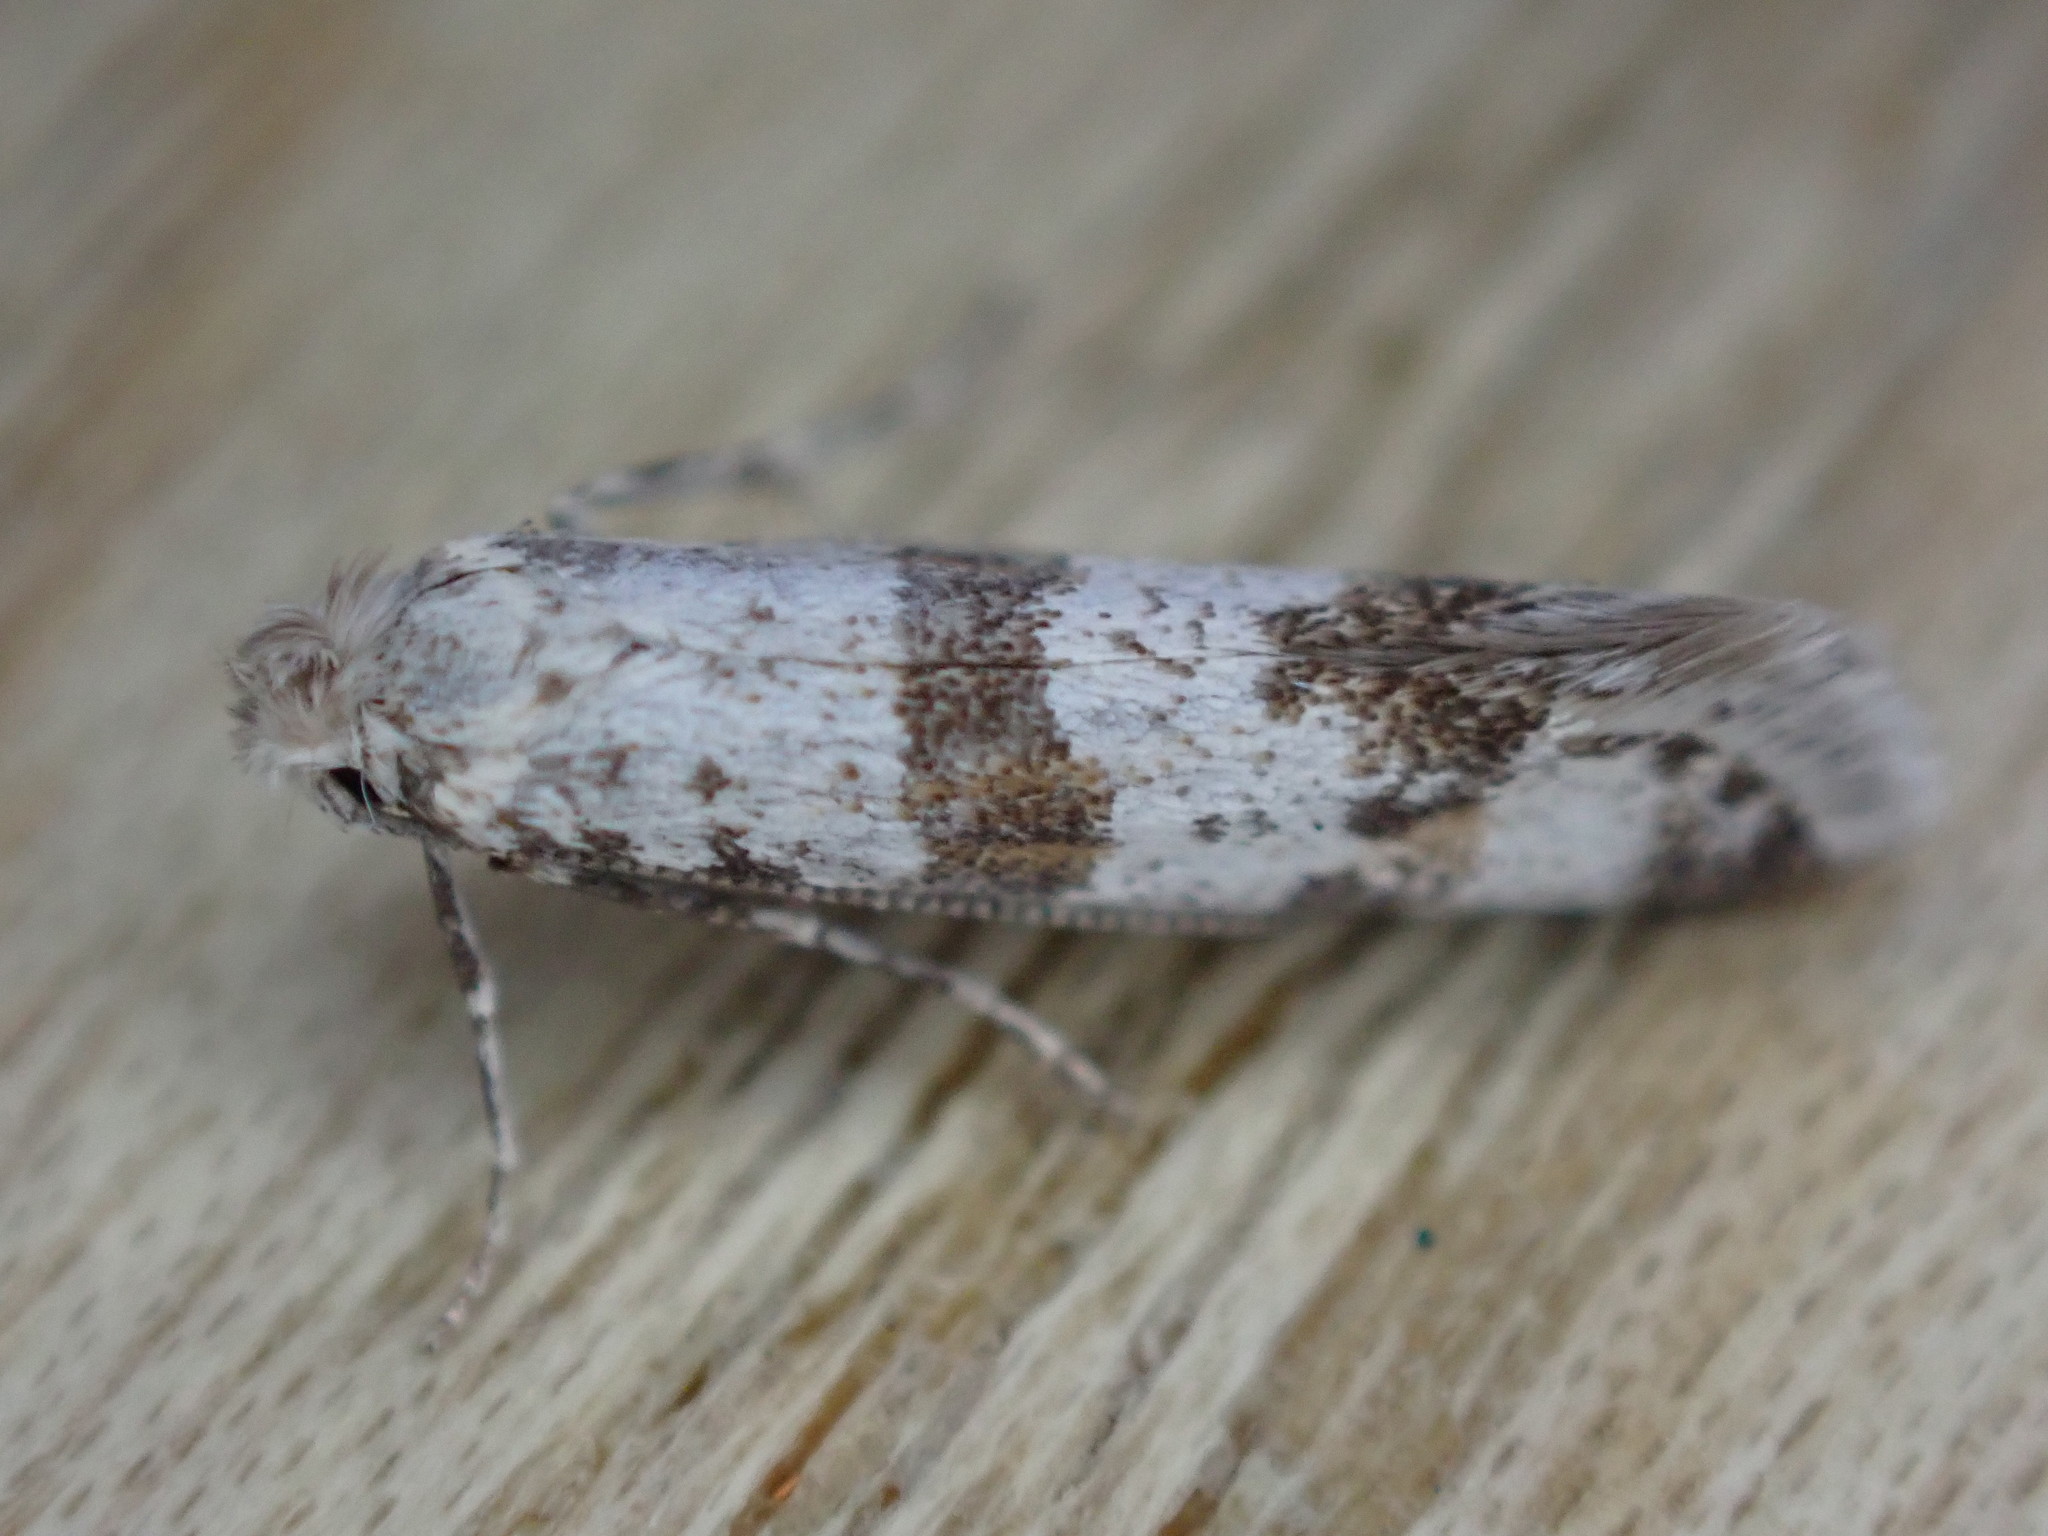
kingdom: Animalia
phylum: Arthropoda
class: Insecta
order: Lepidoptera
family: Yponomeutidae
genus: Scythropia
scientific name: Scythropia crataegella
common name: Hawthorn moth
